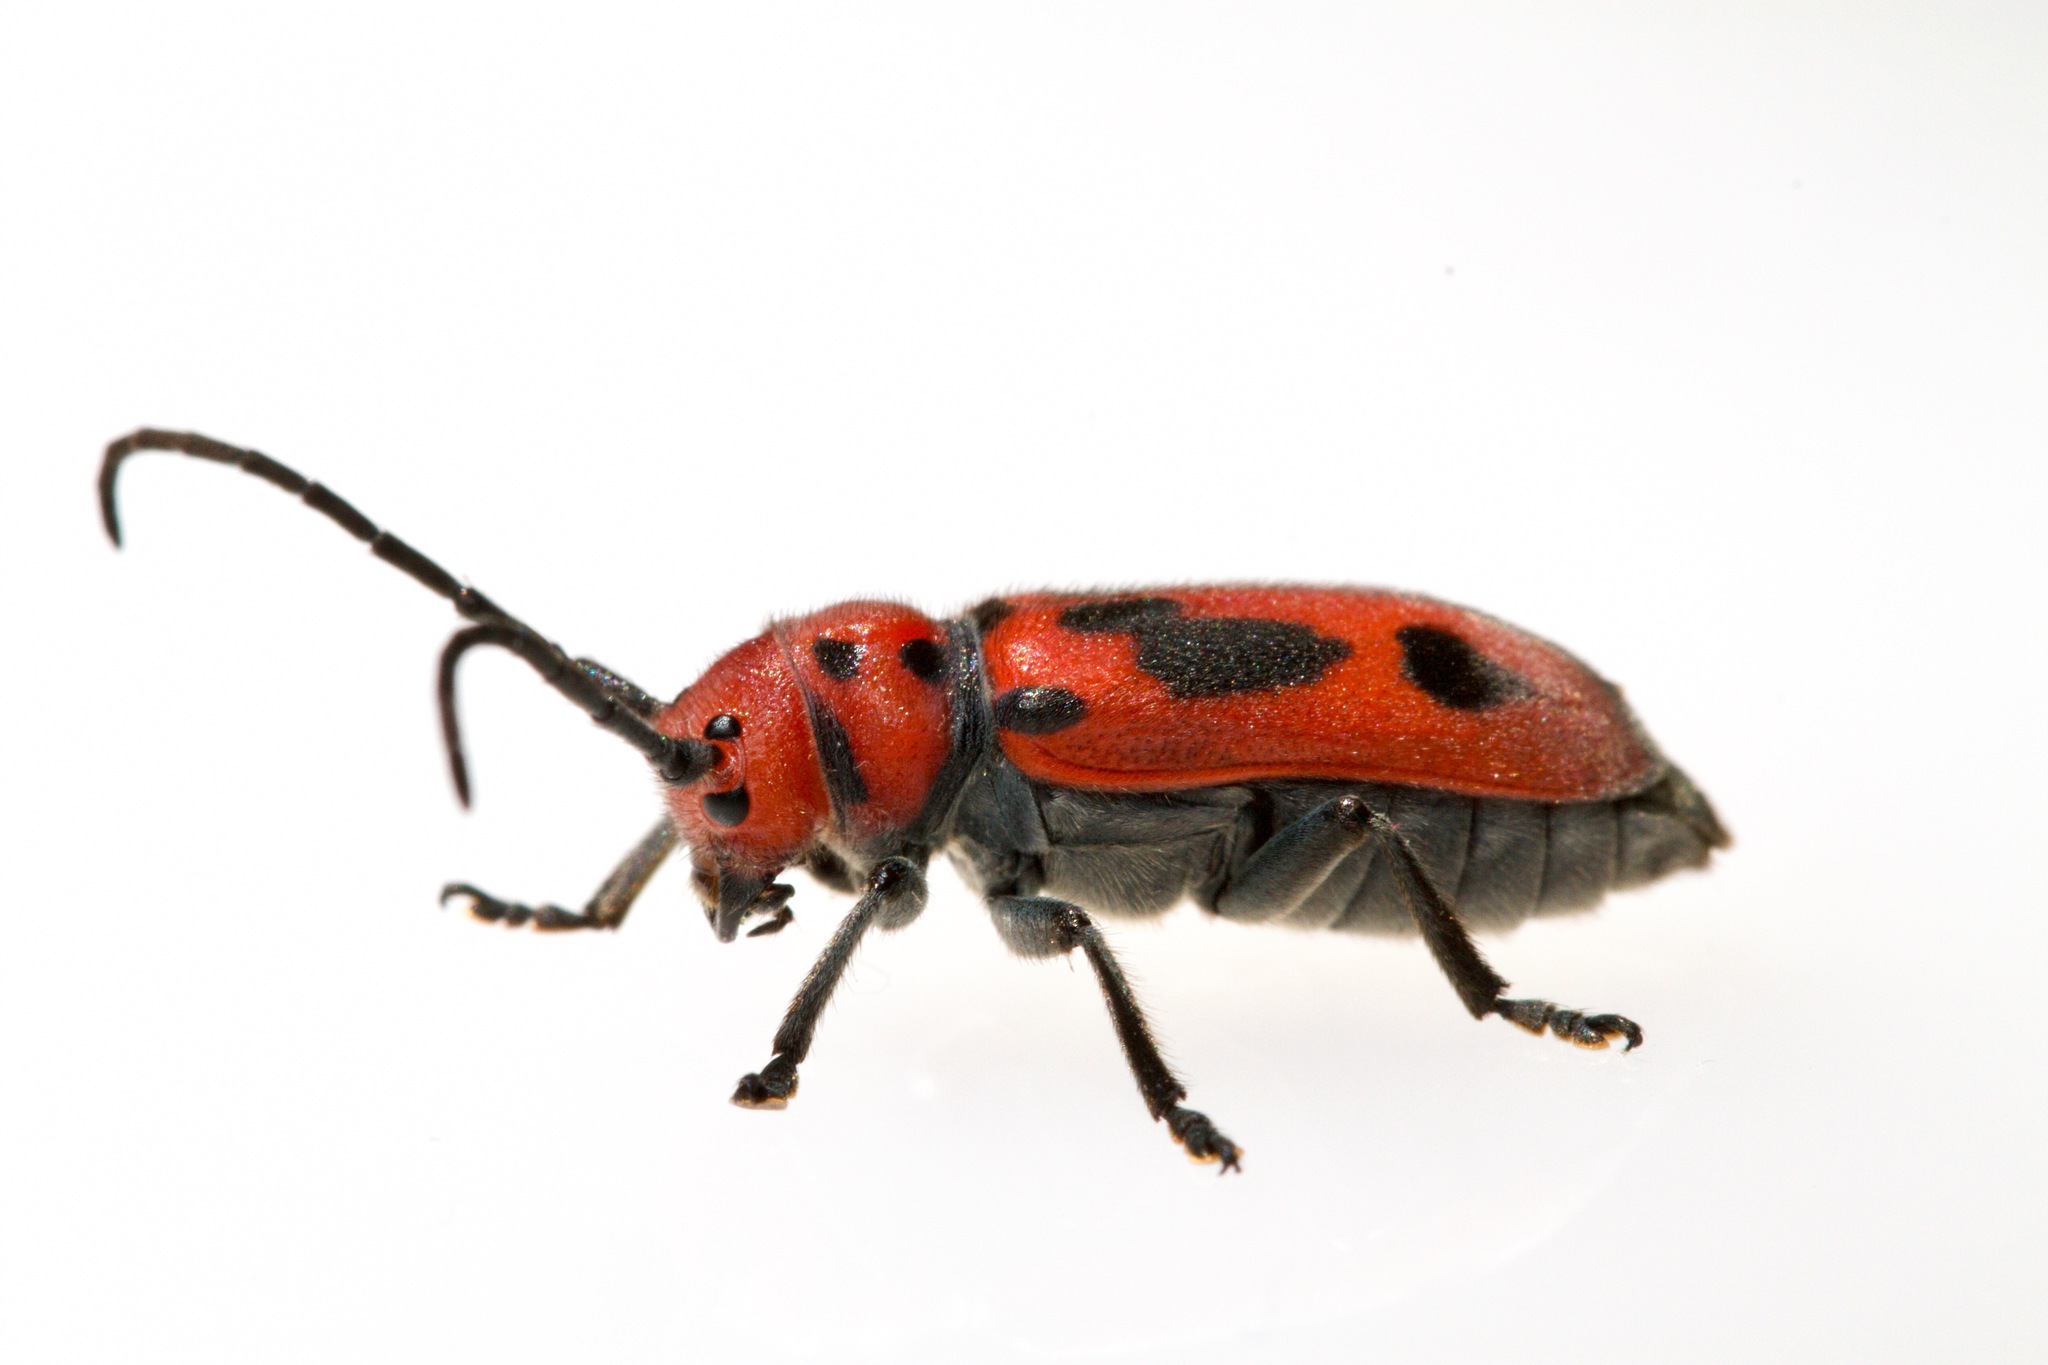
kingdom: Animalia
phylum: Arthropoda
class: Insecta
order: Coleoptera
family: Cerambycidae
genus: Tetraopes
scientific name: Tetraopes tetrophthalmus
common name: Red milkweed beetle
